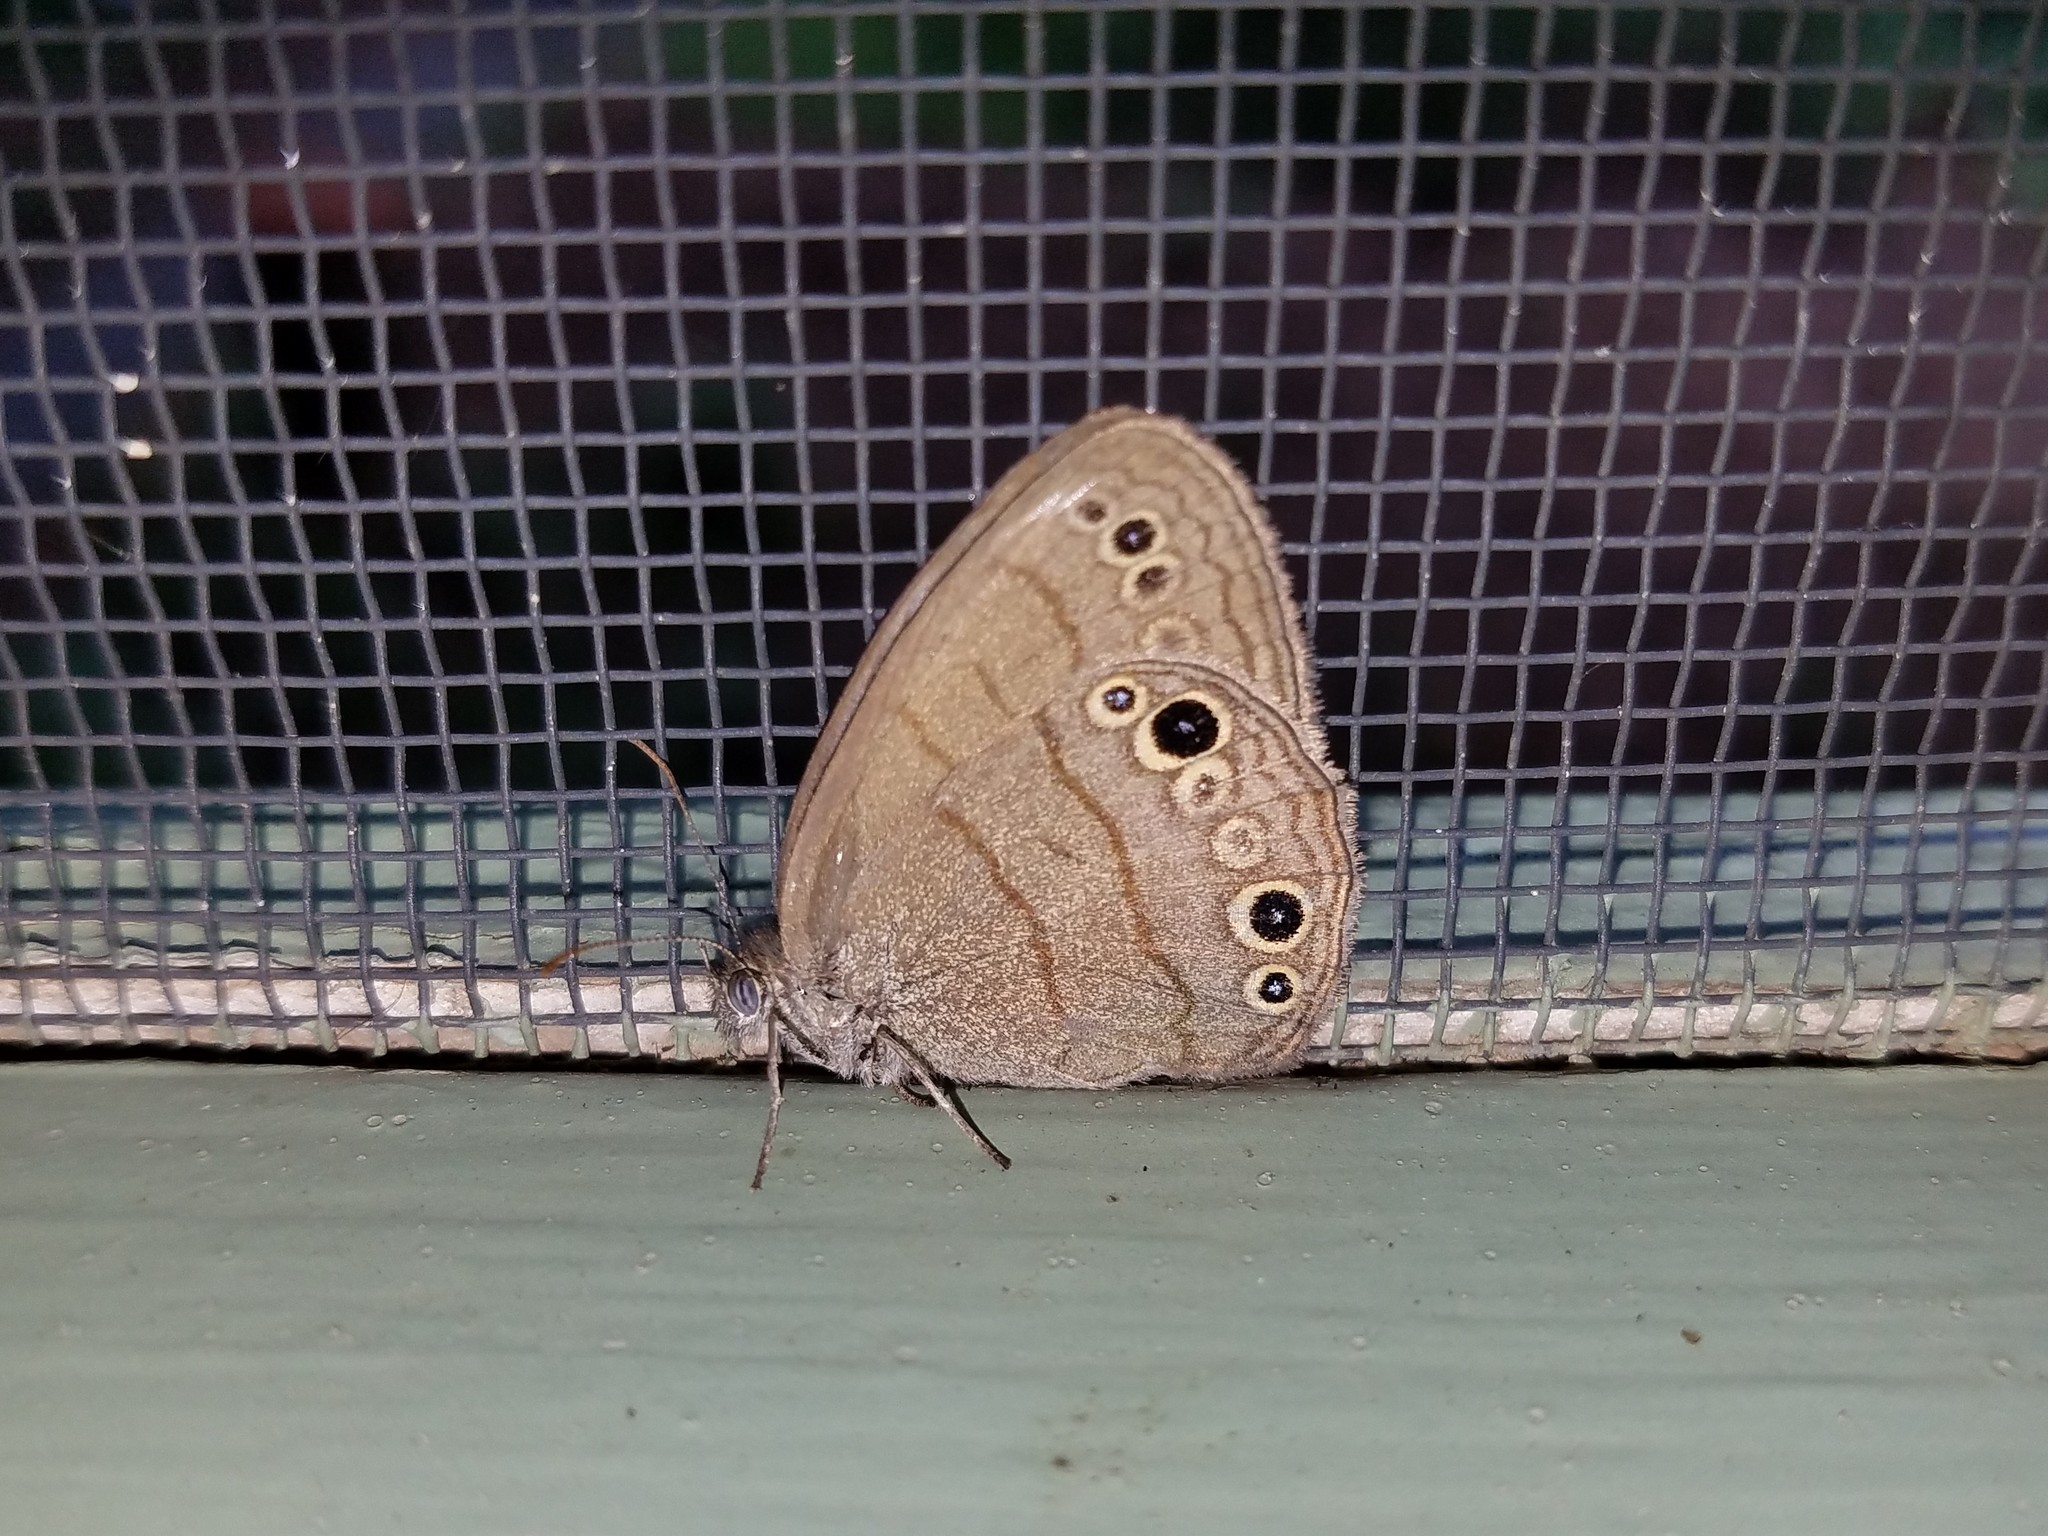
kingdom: Animalia
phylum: Arthropoda
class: Insecta
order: Lepidoptera
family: Nymphalidae
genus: Hermeuptychia
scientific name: Hermeuptychia hermes
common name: Hermes satyr
